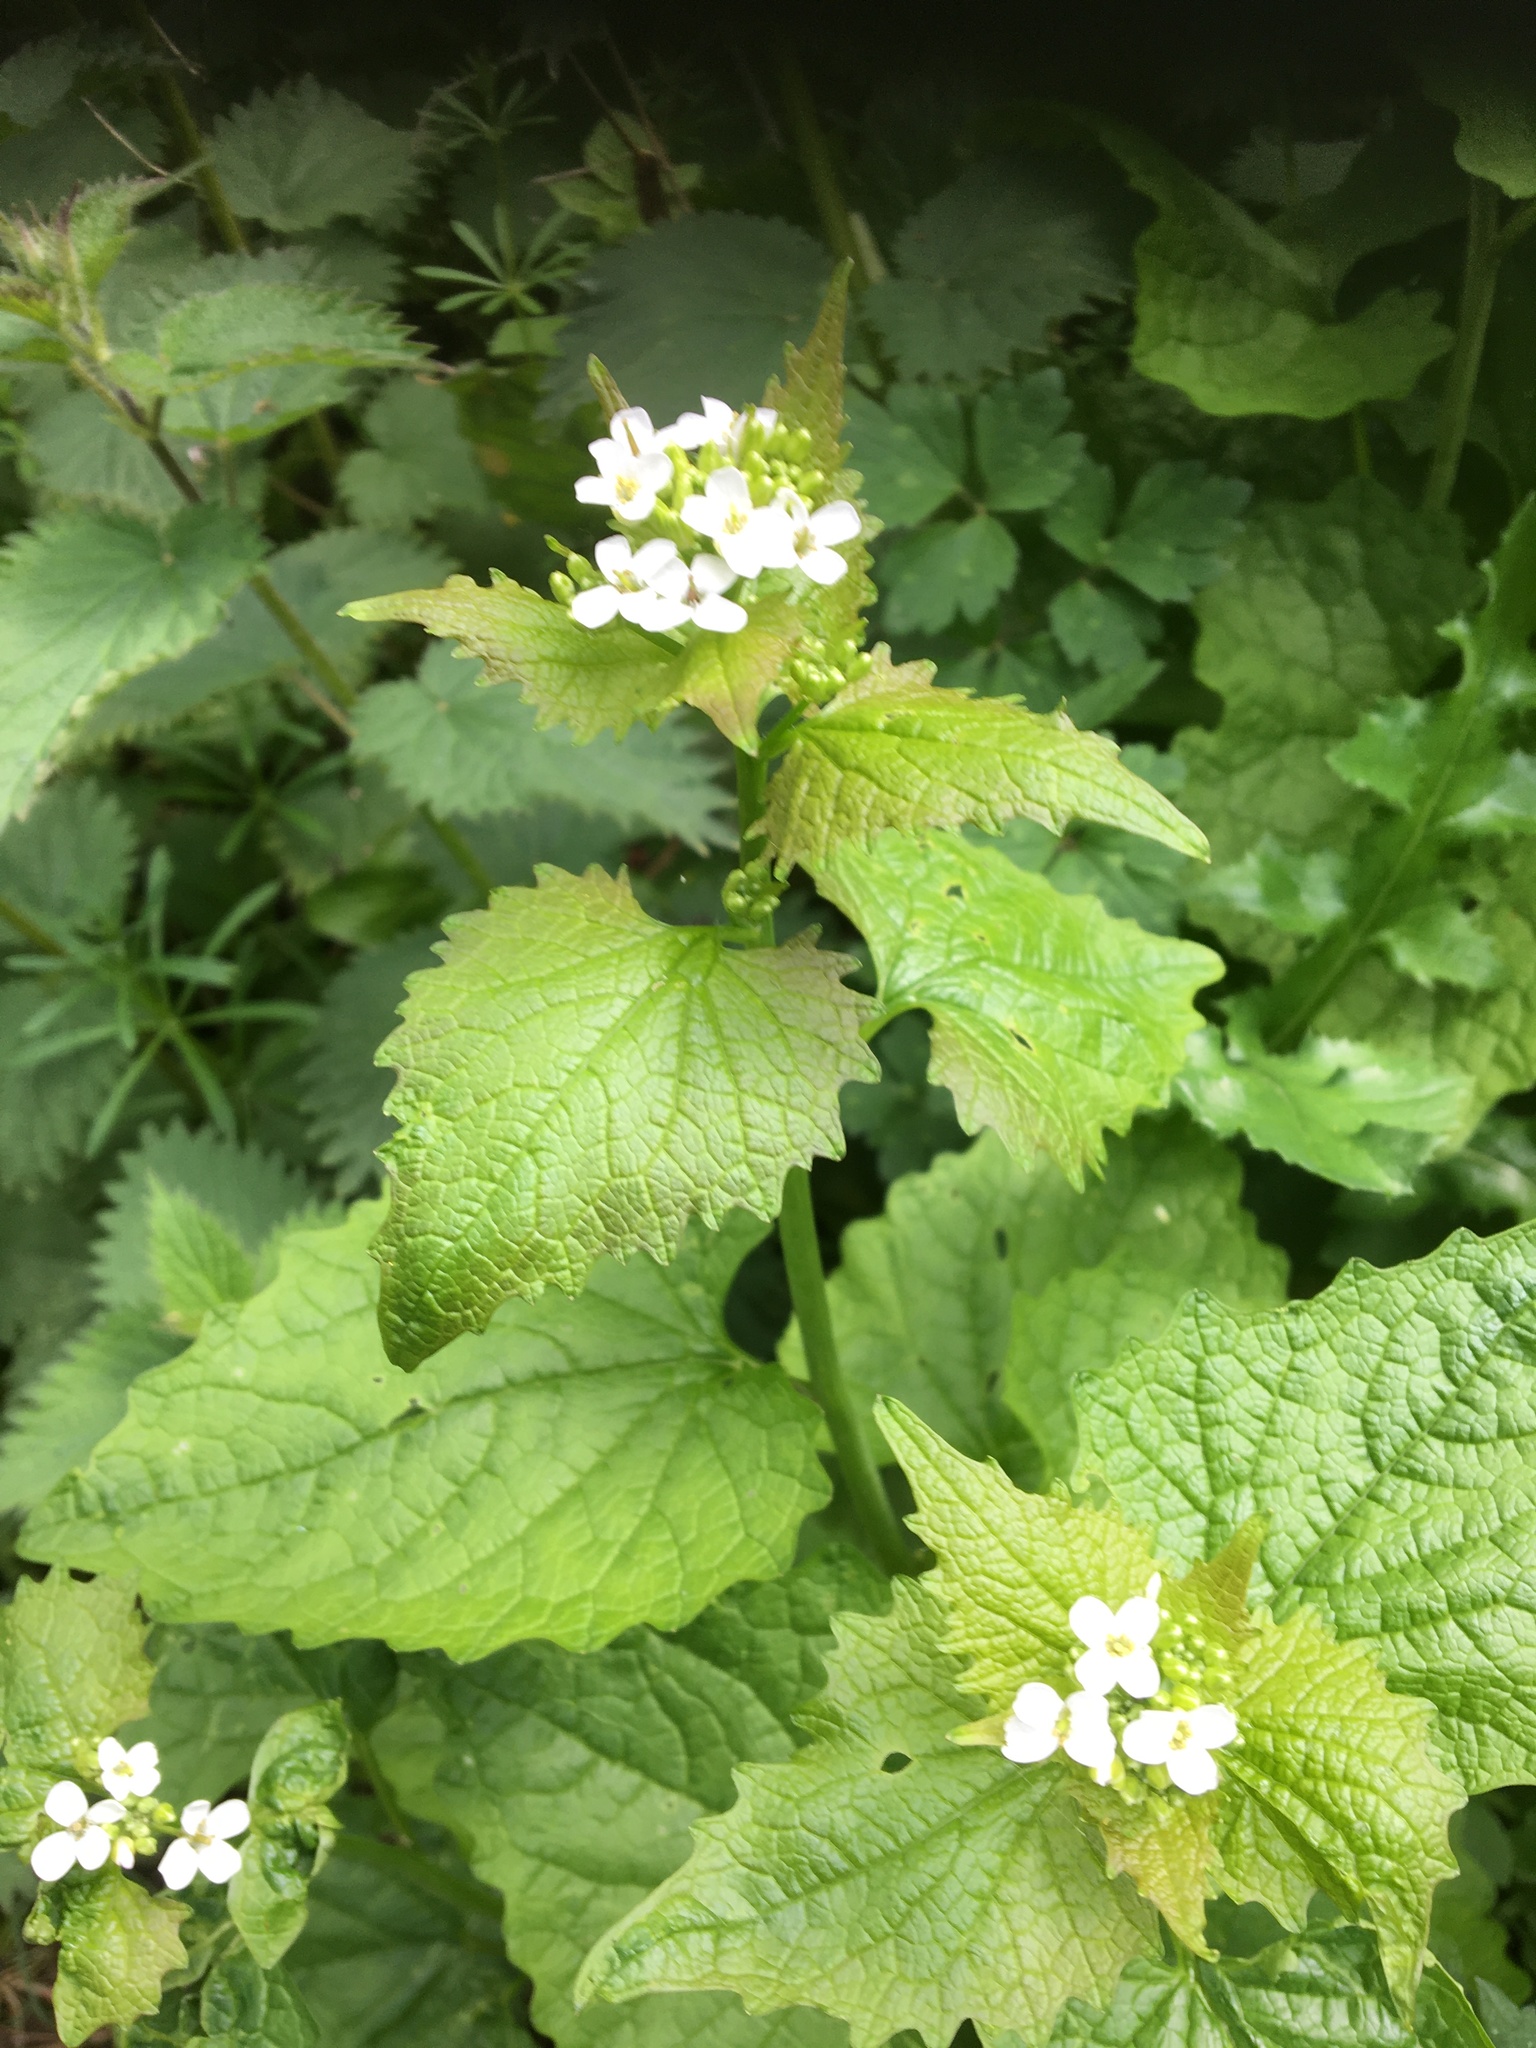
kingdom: Plantae
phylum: Tracheophyta
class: Magnoliopsida
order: Brassicales
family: Brassicaceae
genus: Alliaria
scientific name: Alliaria petiolata
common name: Garlic mustard
